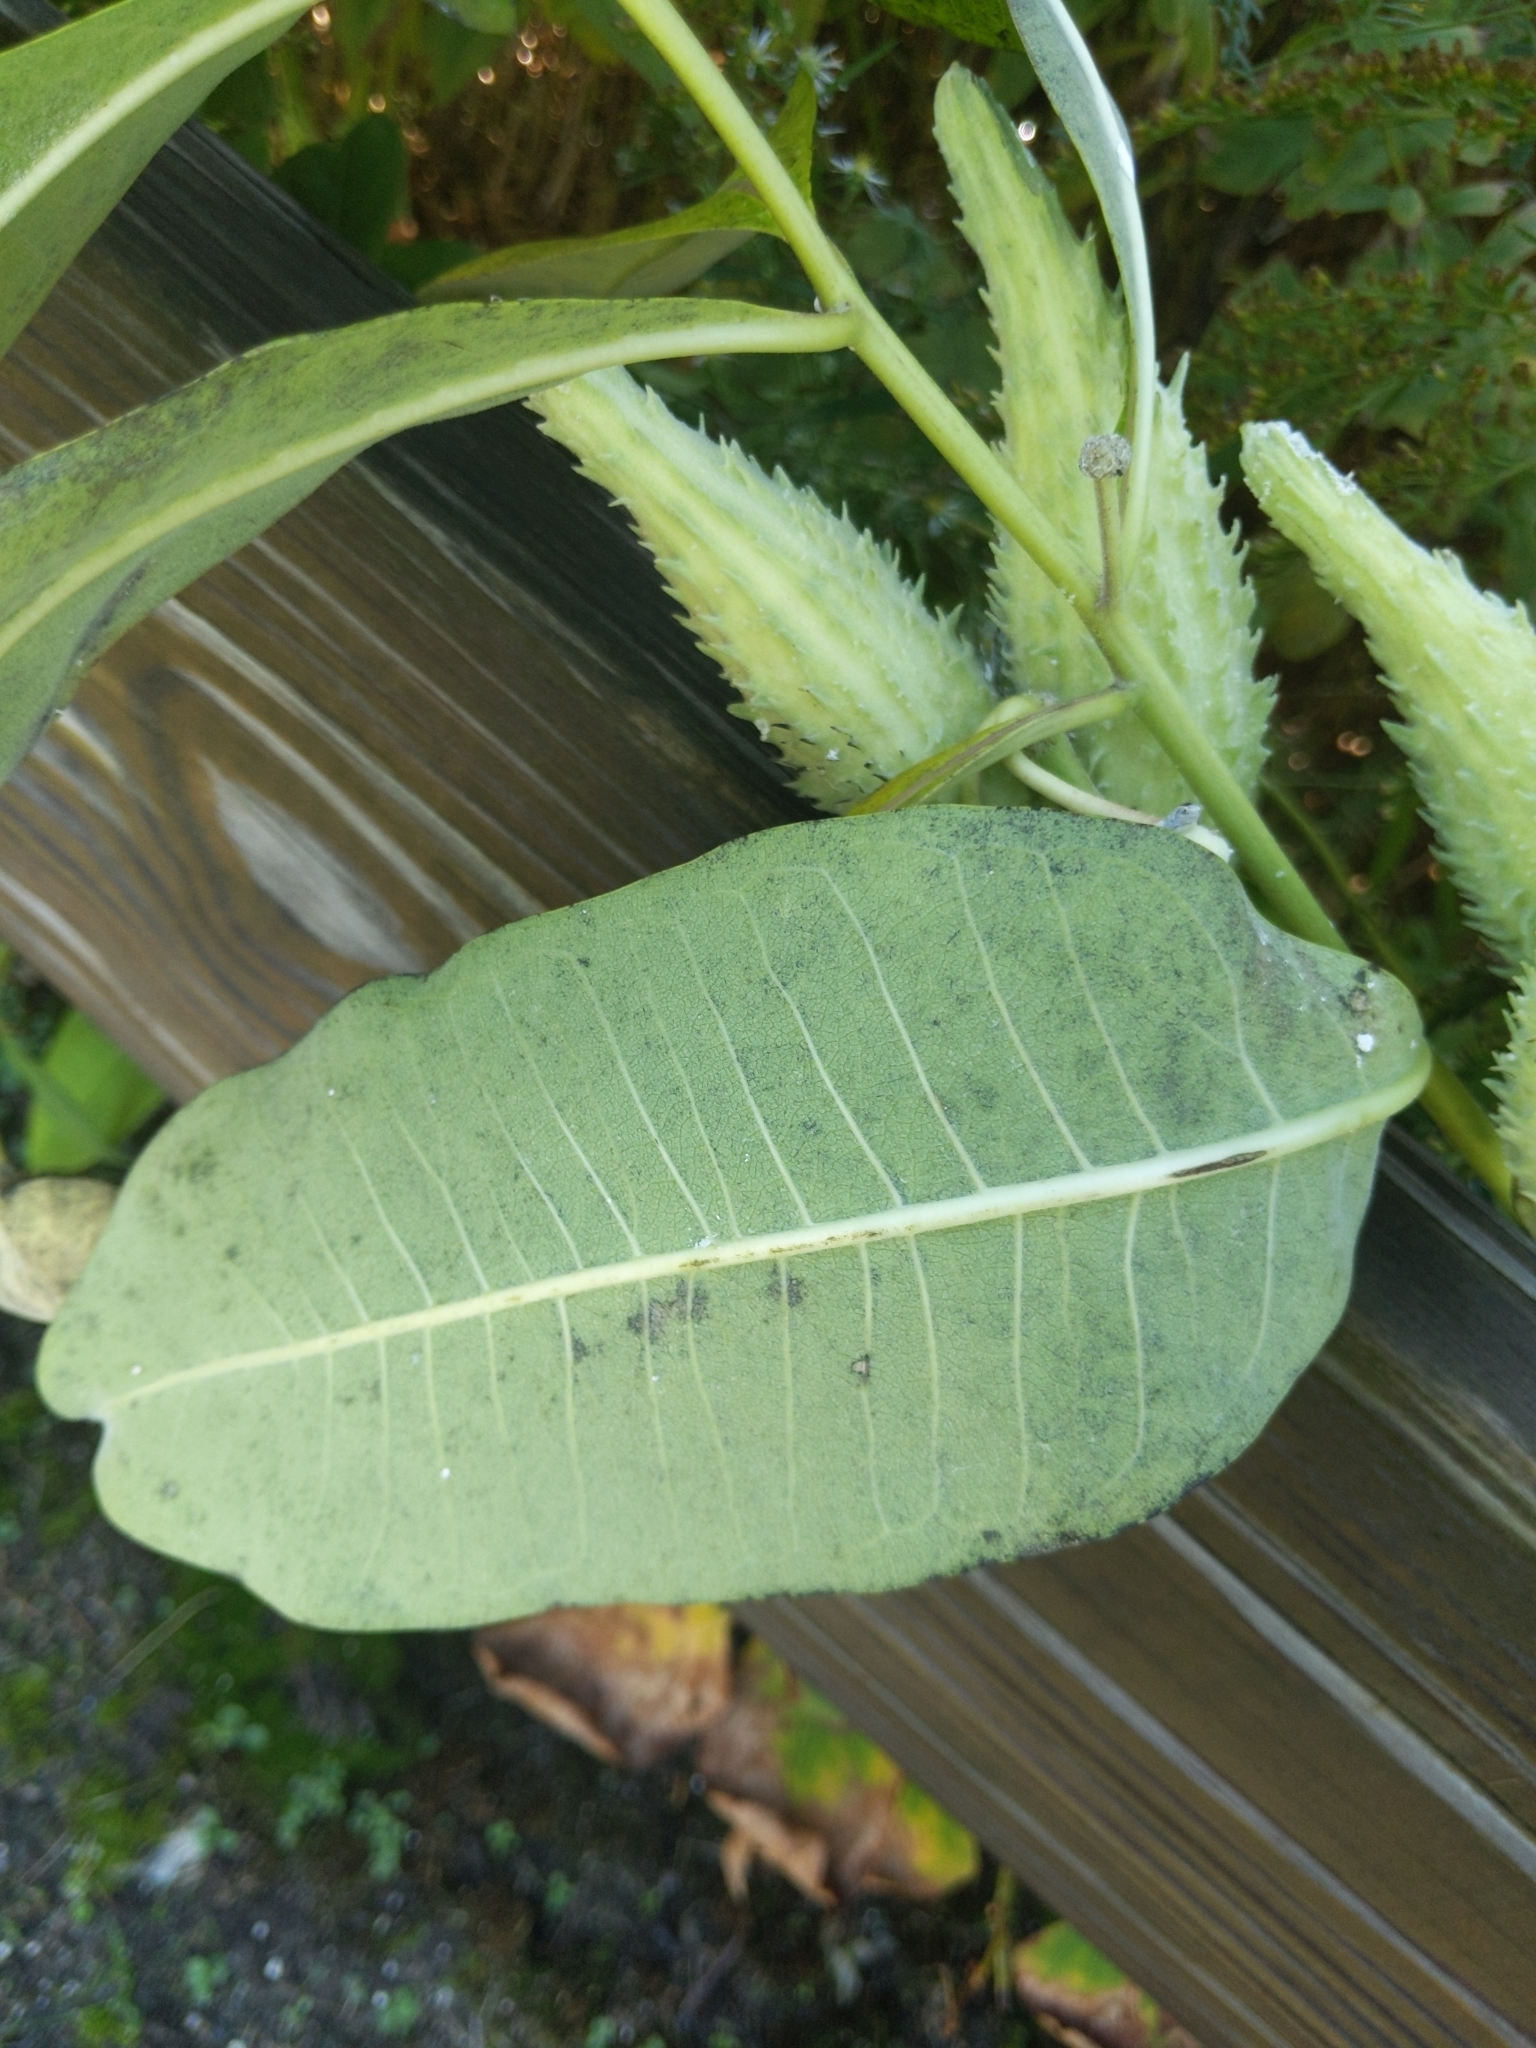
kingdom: Plantae
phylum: Tracheophyta
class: Magnoliopsida
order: Gentianales
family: Apocynaceae
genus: Asclepias
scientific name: Asclepias syriaca
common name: Common milkweed
